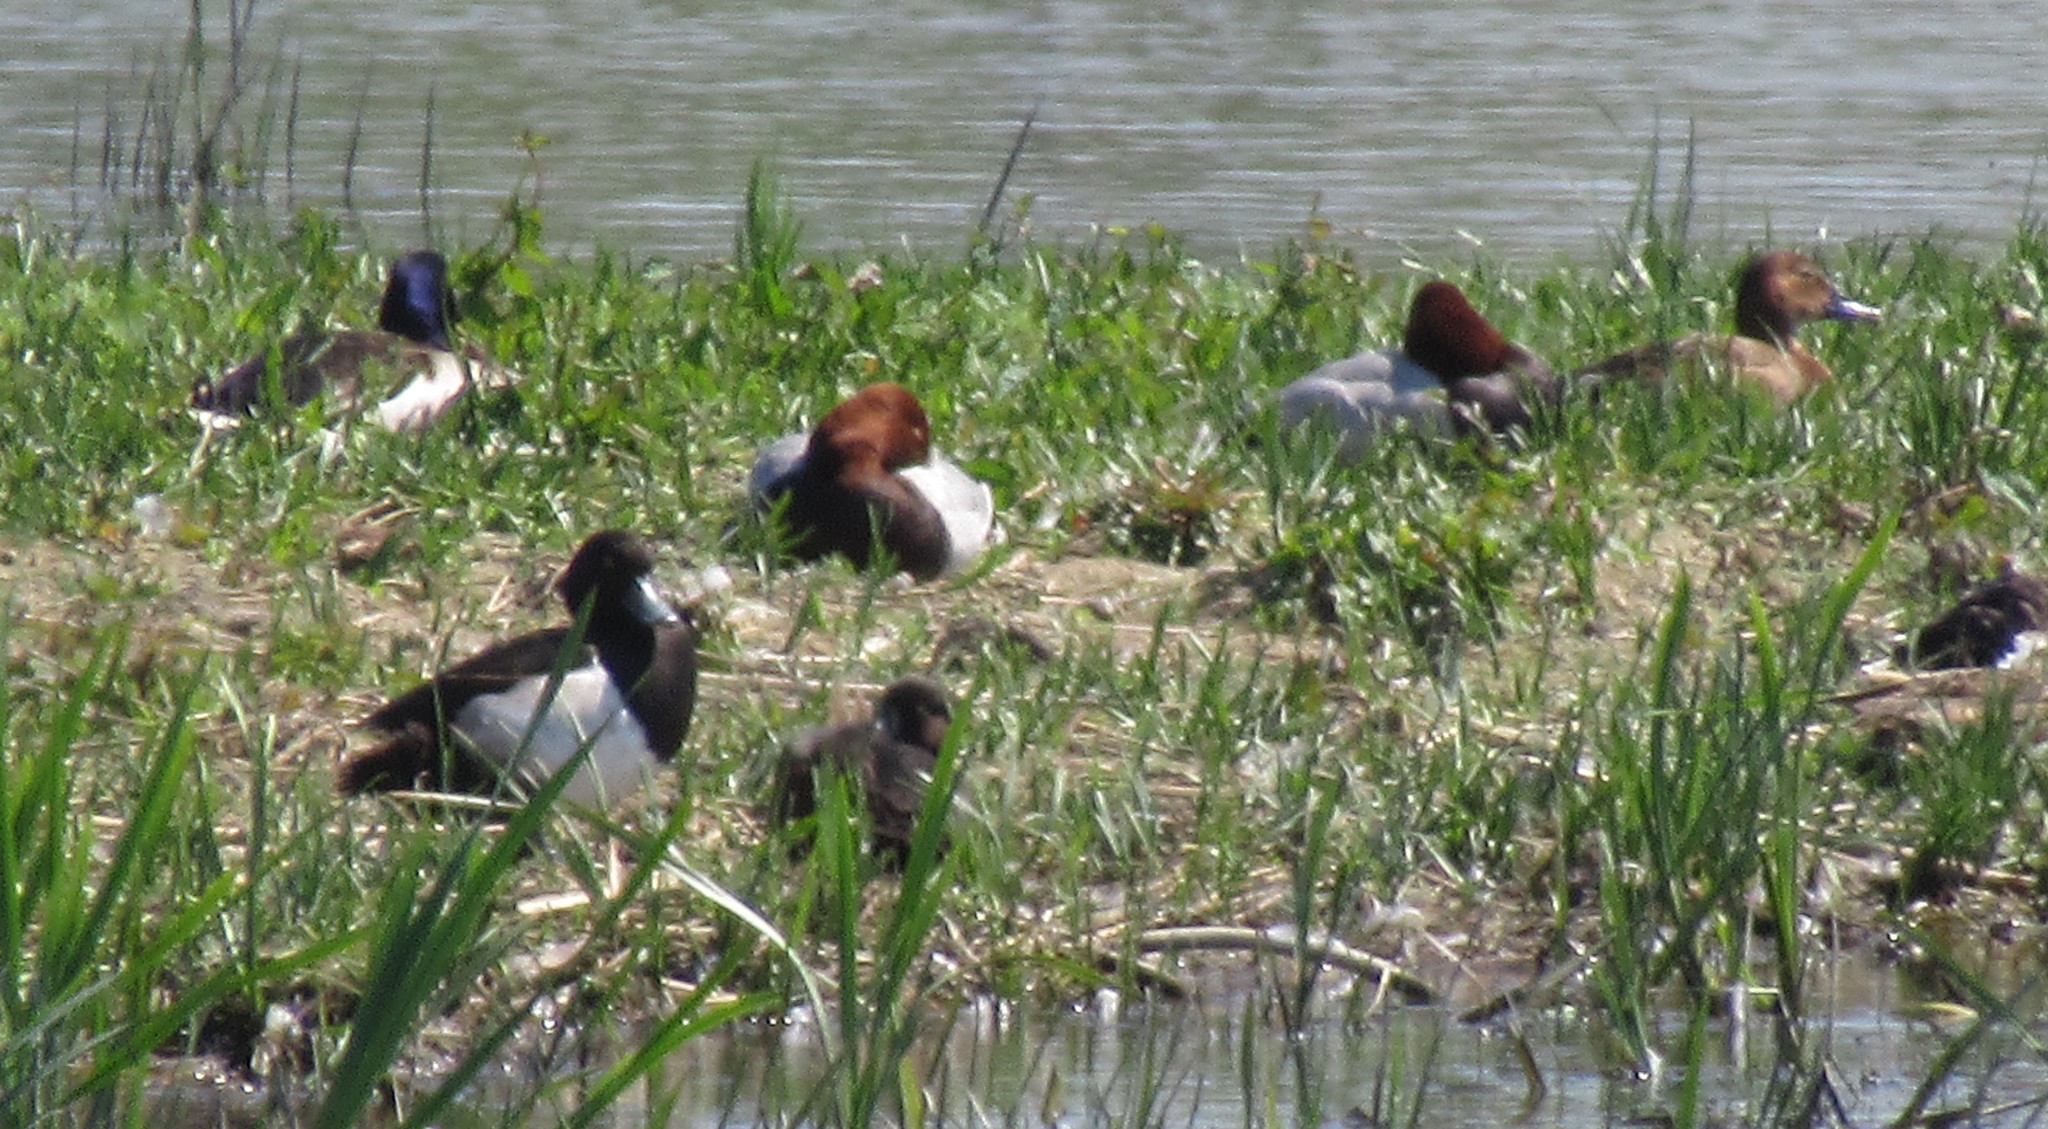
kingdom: Animalia
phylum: Chordata
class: Aves
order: Anseriformes
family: Anatidae
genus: Aythya
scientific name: Aythya ferina
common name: Common pochard
